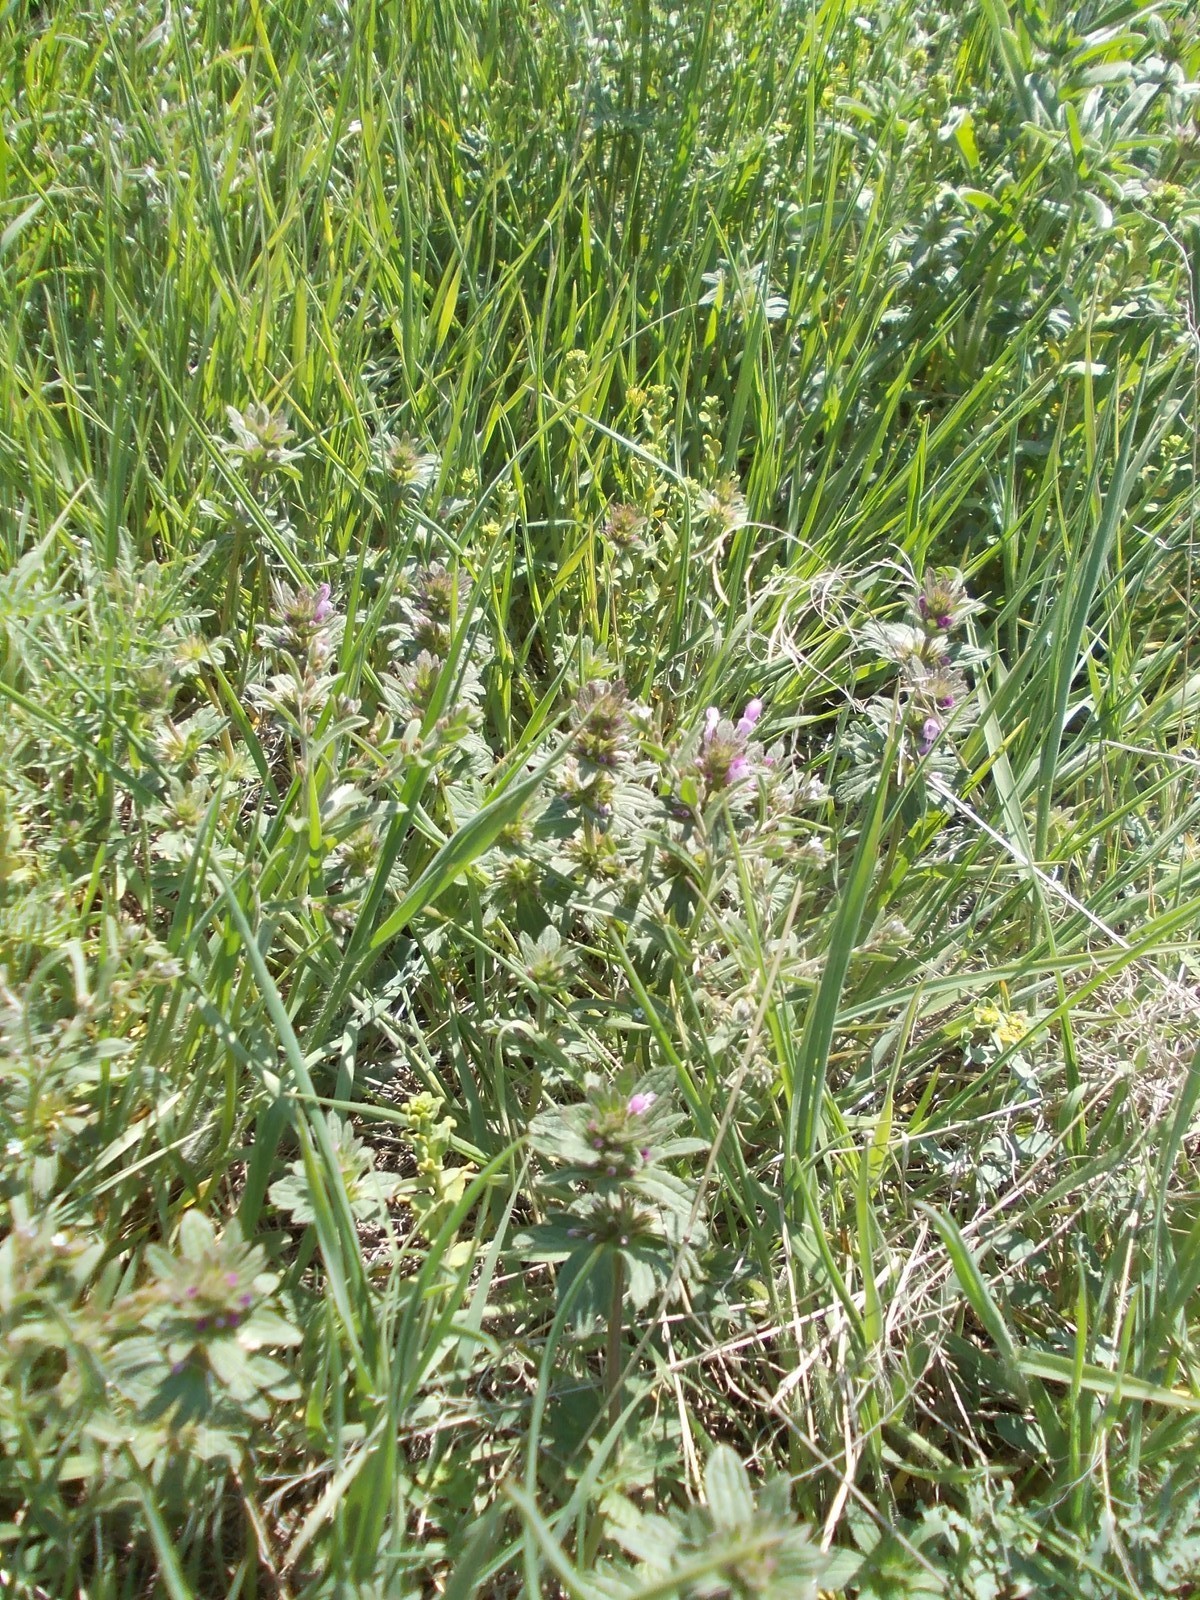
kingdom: Plantae
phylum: Tracheophyta
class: Magnoliopsida
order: Lamiales
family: Lamiaceae
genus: Lamium
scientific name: Lamium amplexicaule
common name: Henbit dead-nettle
